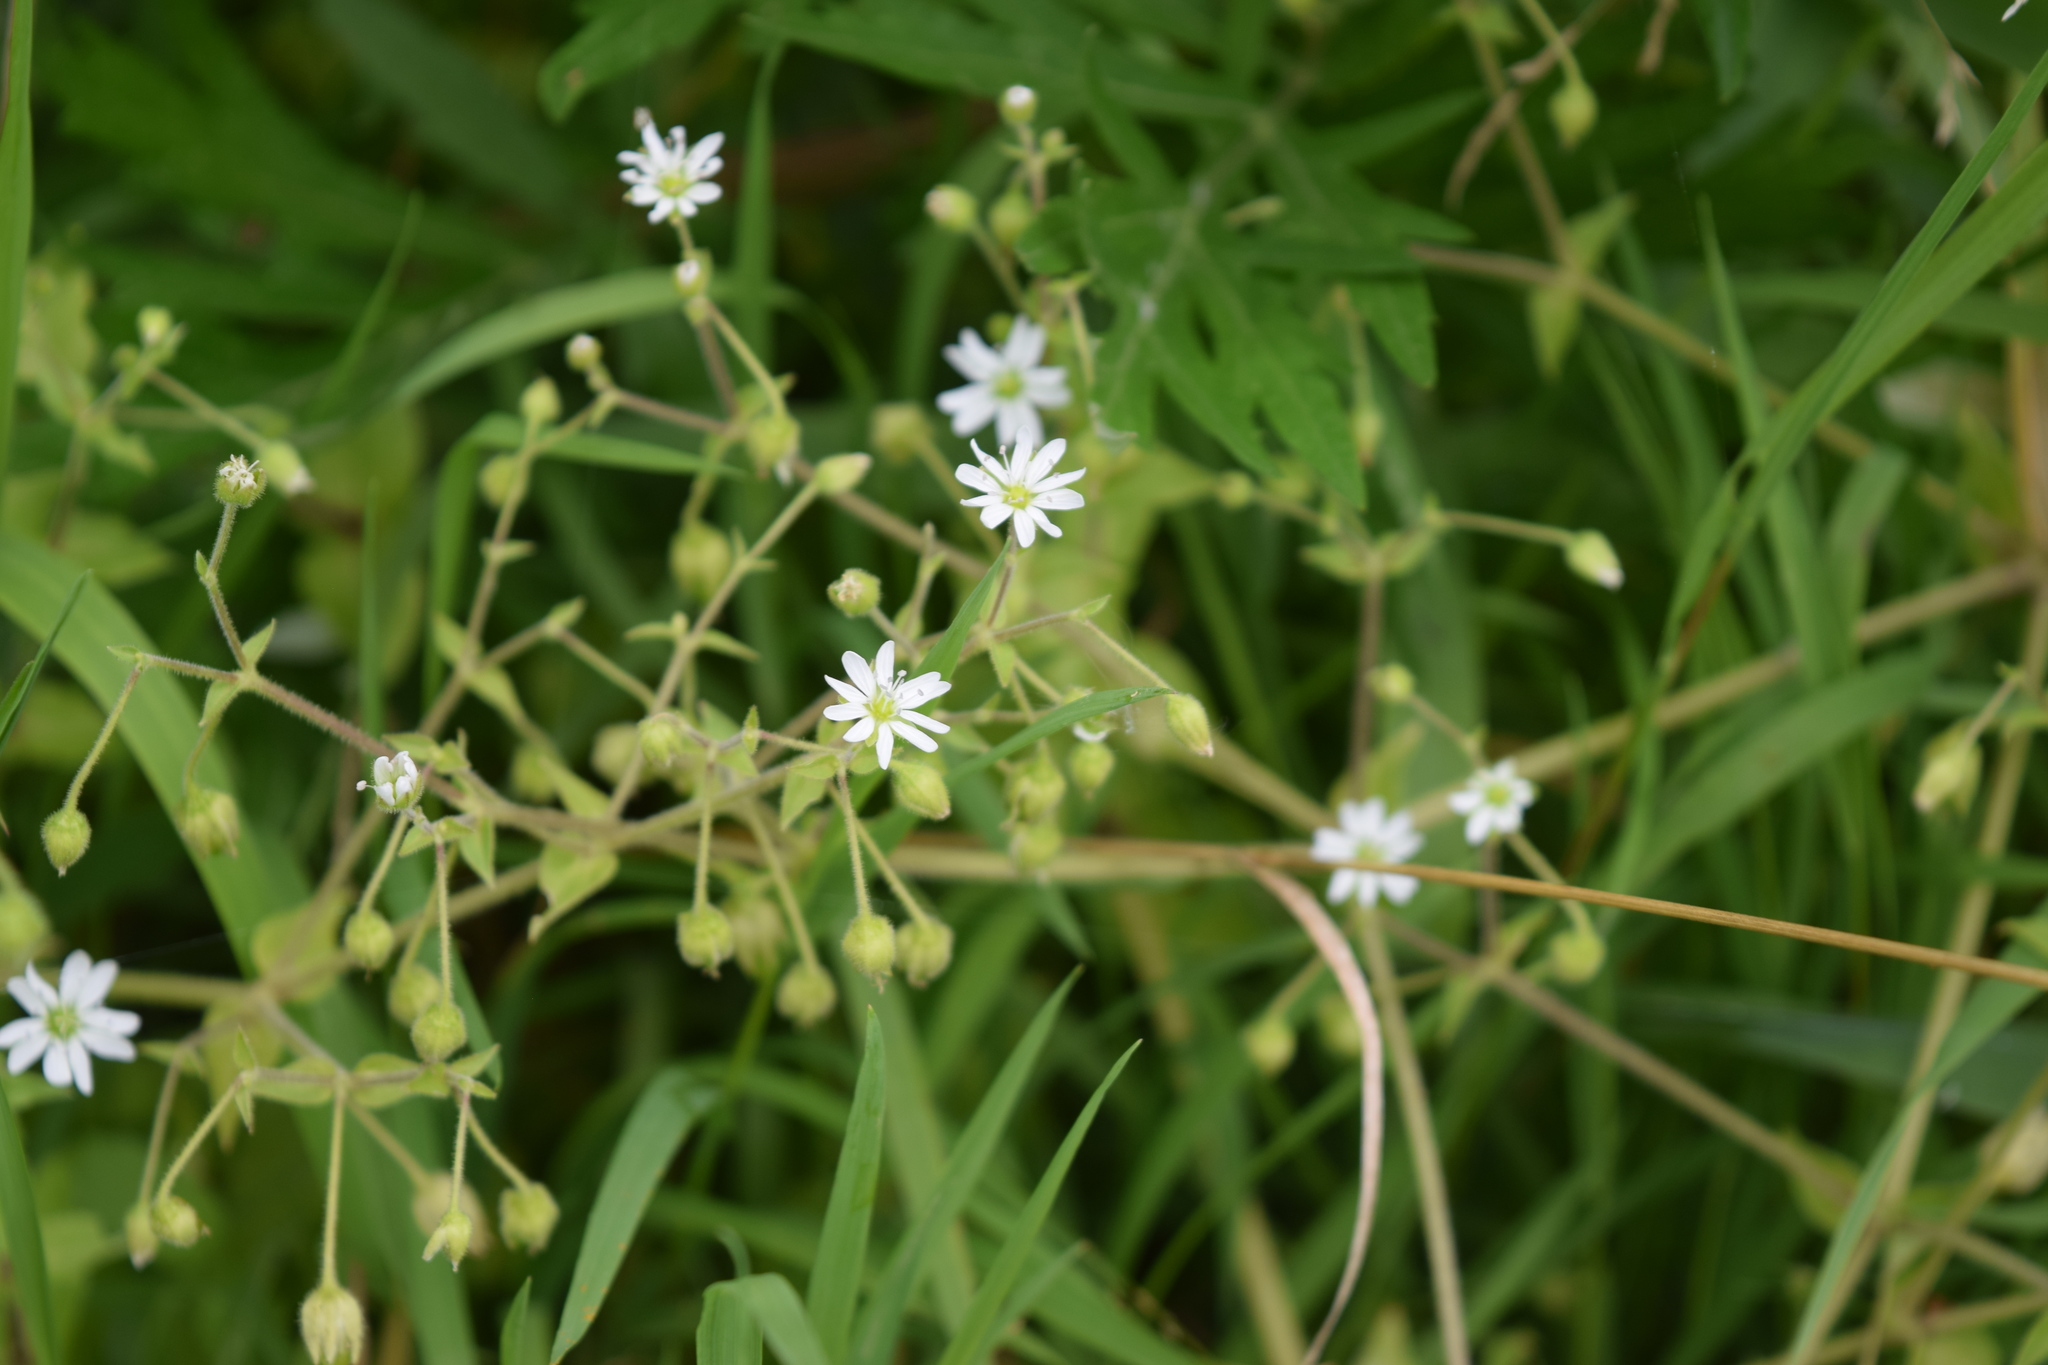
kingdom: Plantae
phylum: Tracheophyta
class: Magnoliopsida
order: Caryophyllales
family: Caryophyllaceae
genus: Stellaria
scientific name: Stellaria aquatica
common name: Water chickweed
